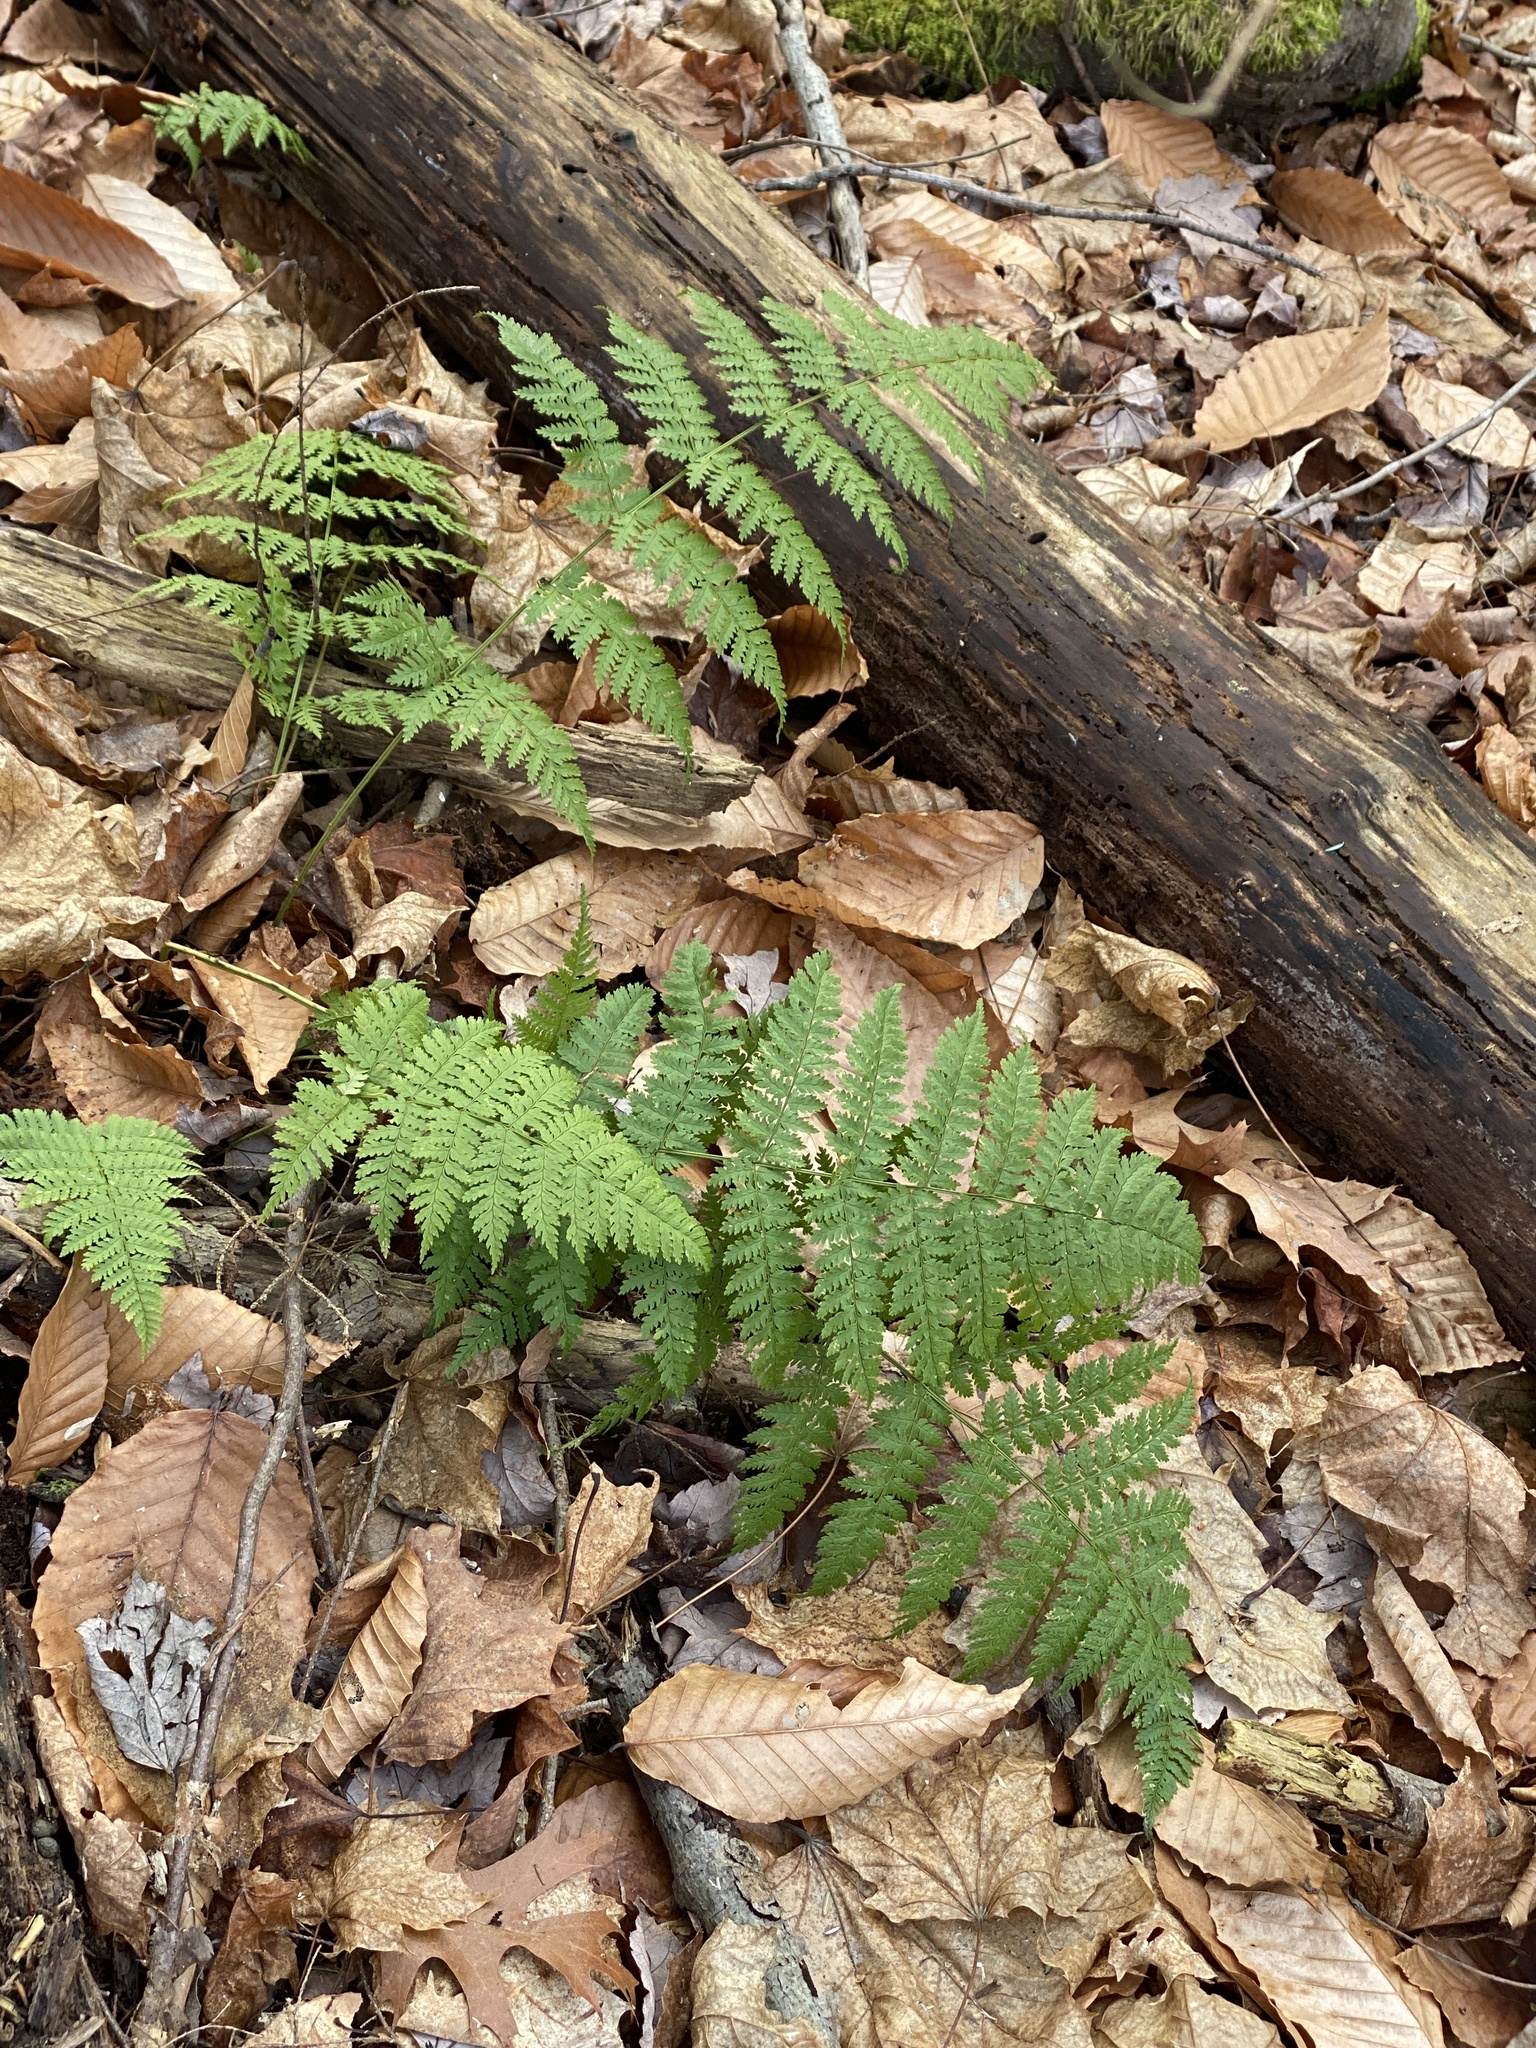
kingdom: Plantae
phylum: Tracheophyta
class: Polypodiopsida
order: Polypodiales
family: Dryopteridaceae
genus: Dryopteris
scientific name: Dryopteris intermedia
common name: Evergreen wood fern
